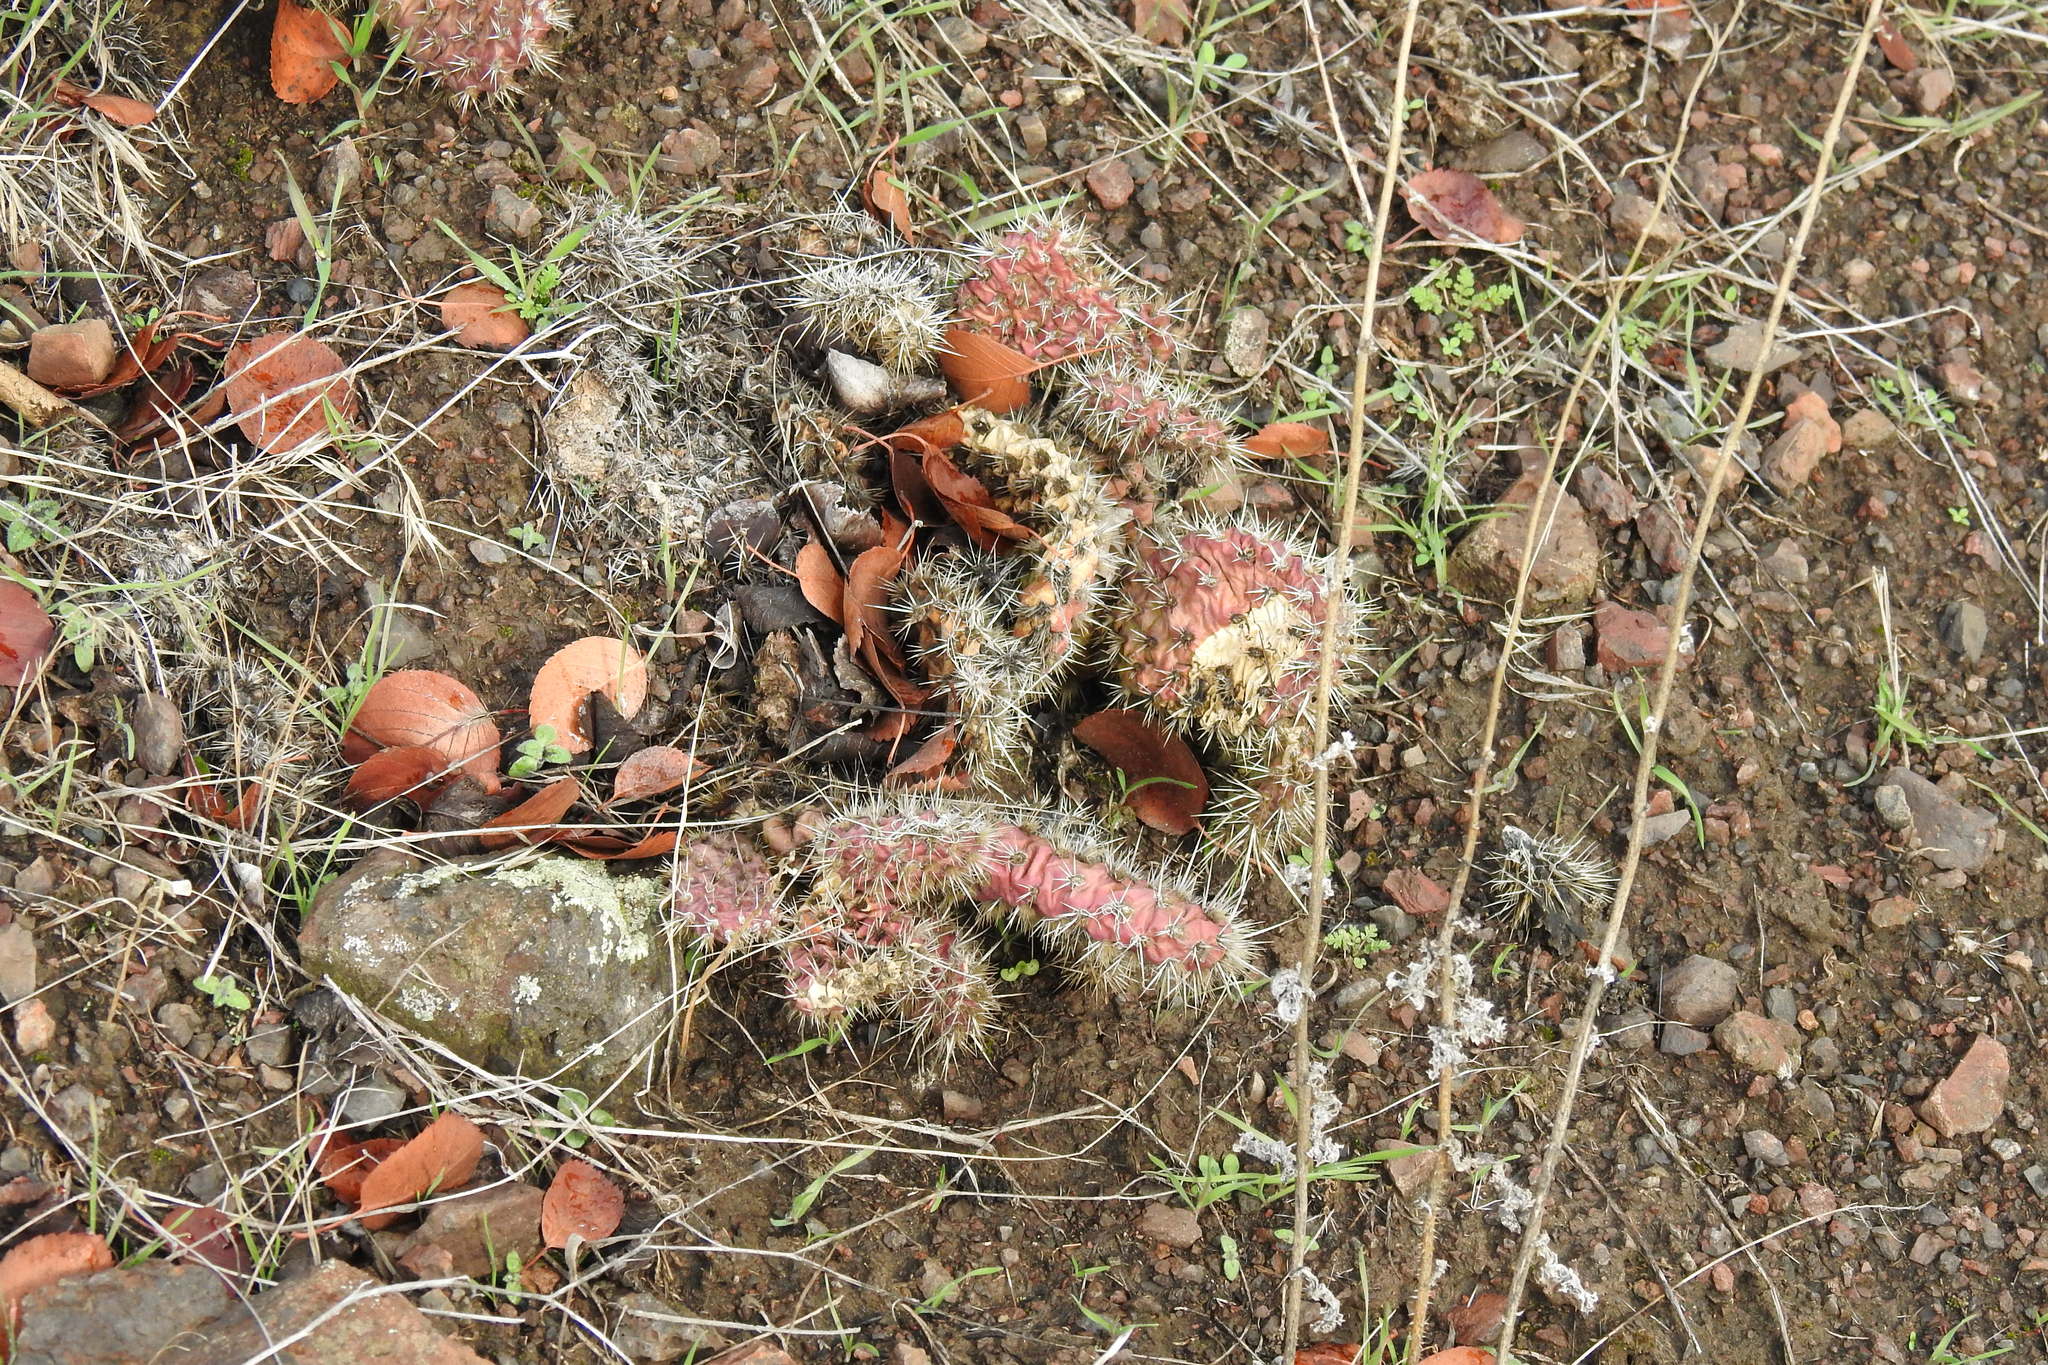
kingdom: Plantae
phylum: Tracheophyta
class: Magnoliopsida
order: Caryophyllales
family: Cactaceae
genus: Opuntia
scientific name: Opuntia polyacantha
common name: Plains prickly-pear
